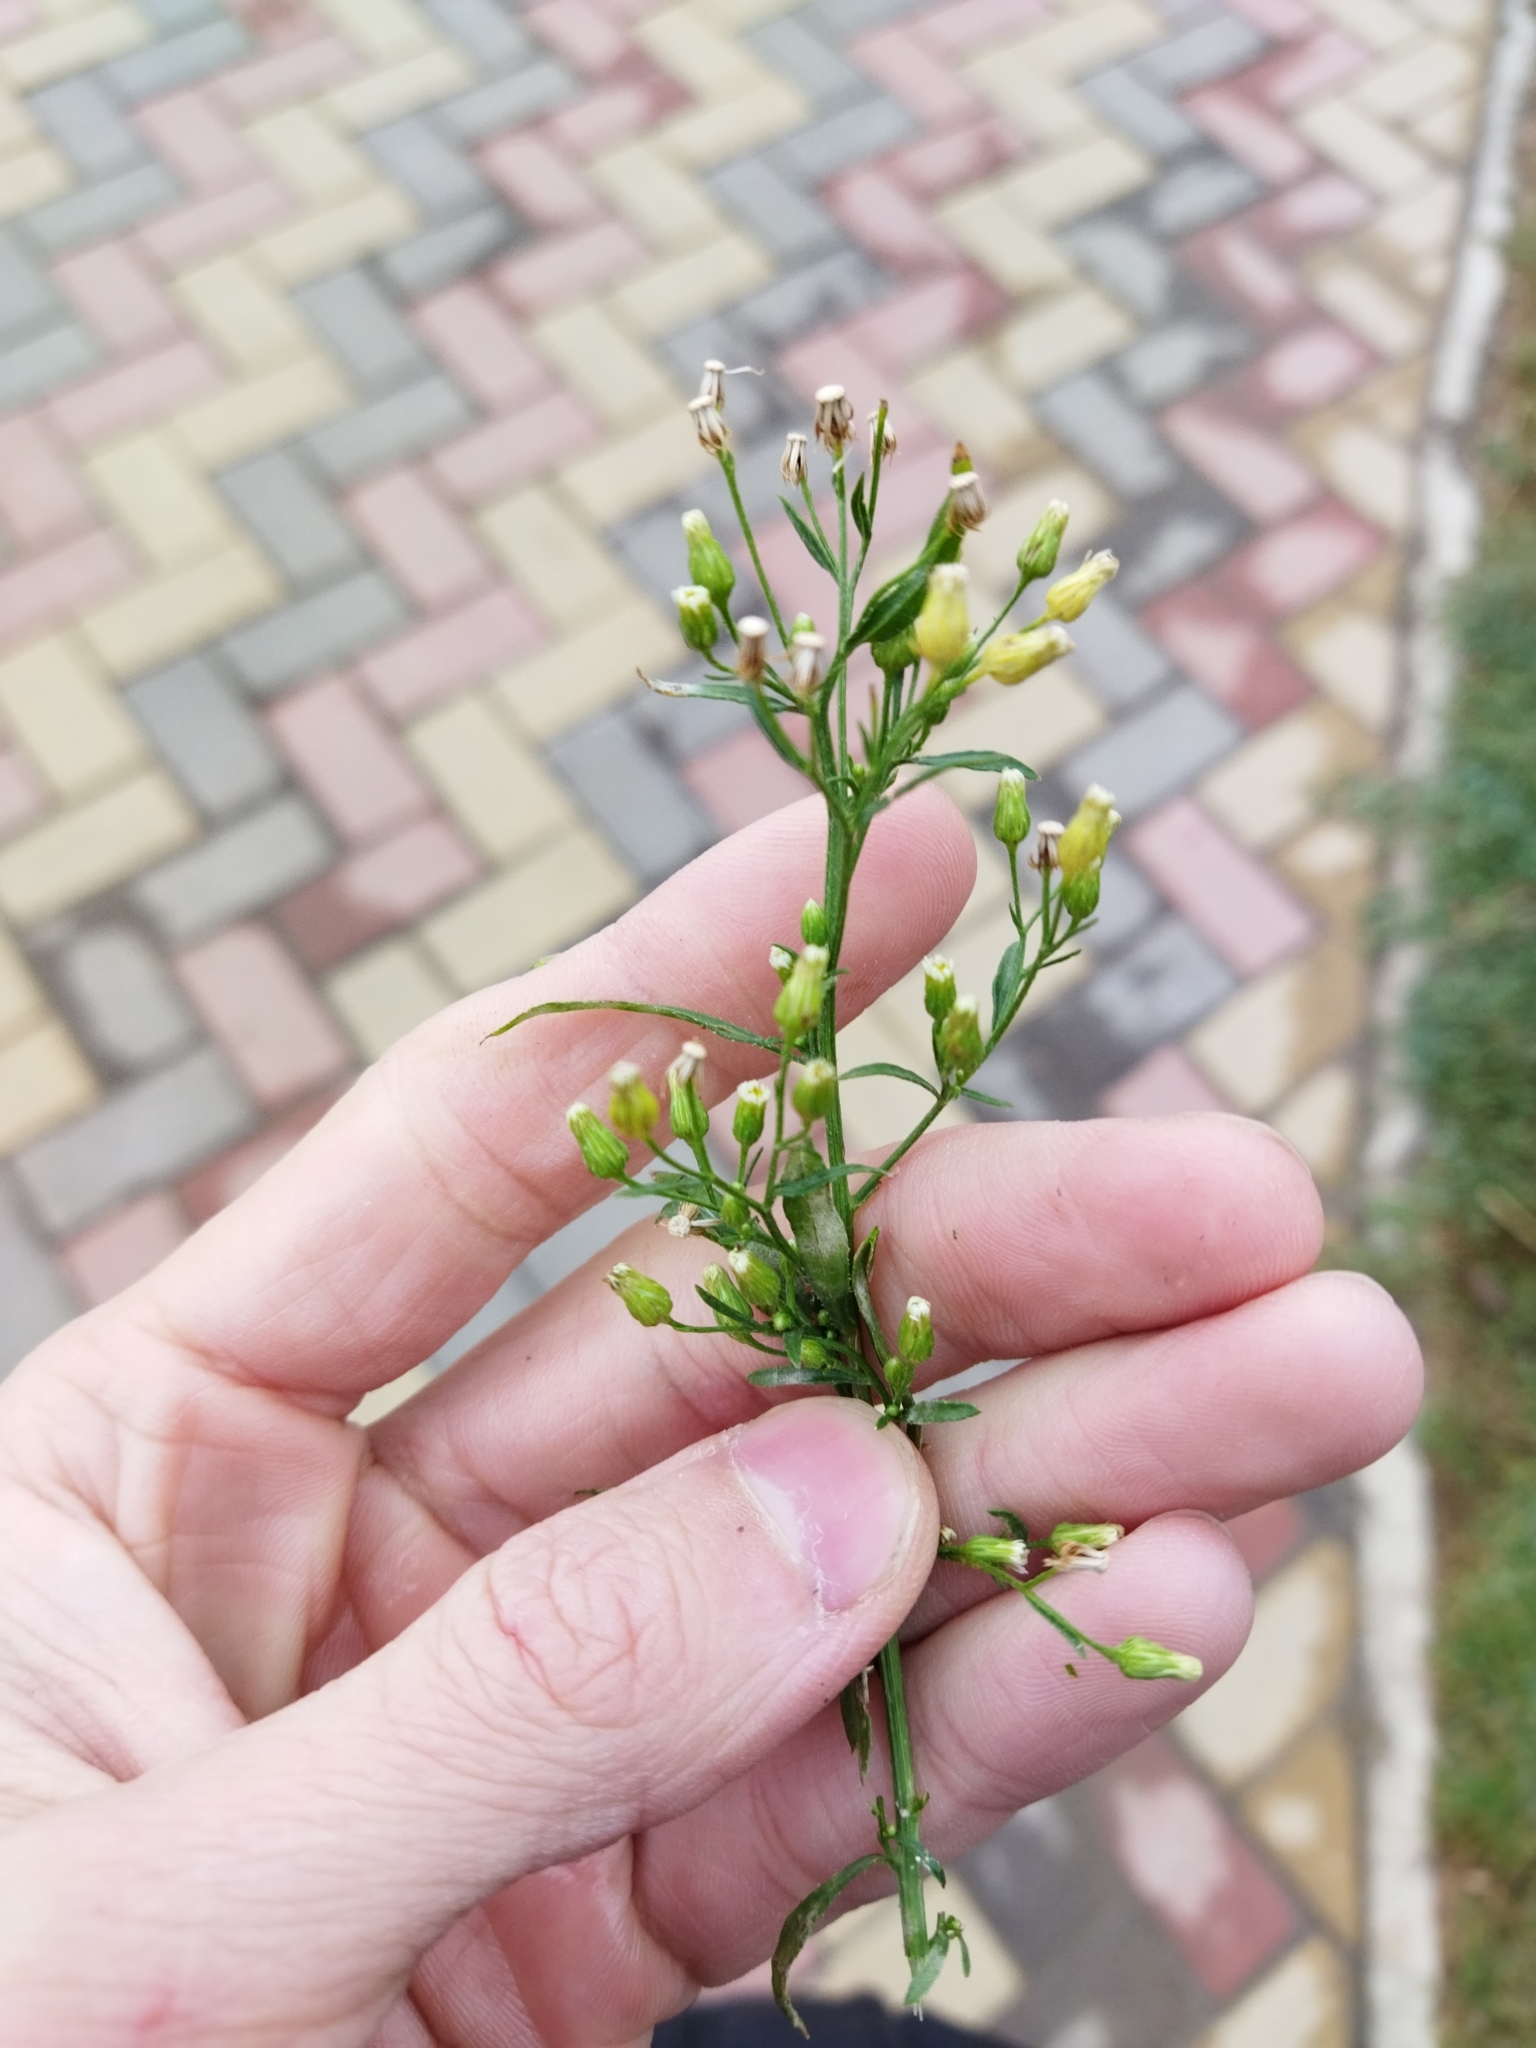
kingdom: Plantae
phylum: Tracheophyta
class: Magnoliopsida
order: Asterales
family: Asteraceae
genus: Erigeron
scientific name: Erigeron canadensis
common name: Canadian fleabane
